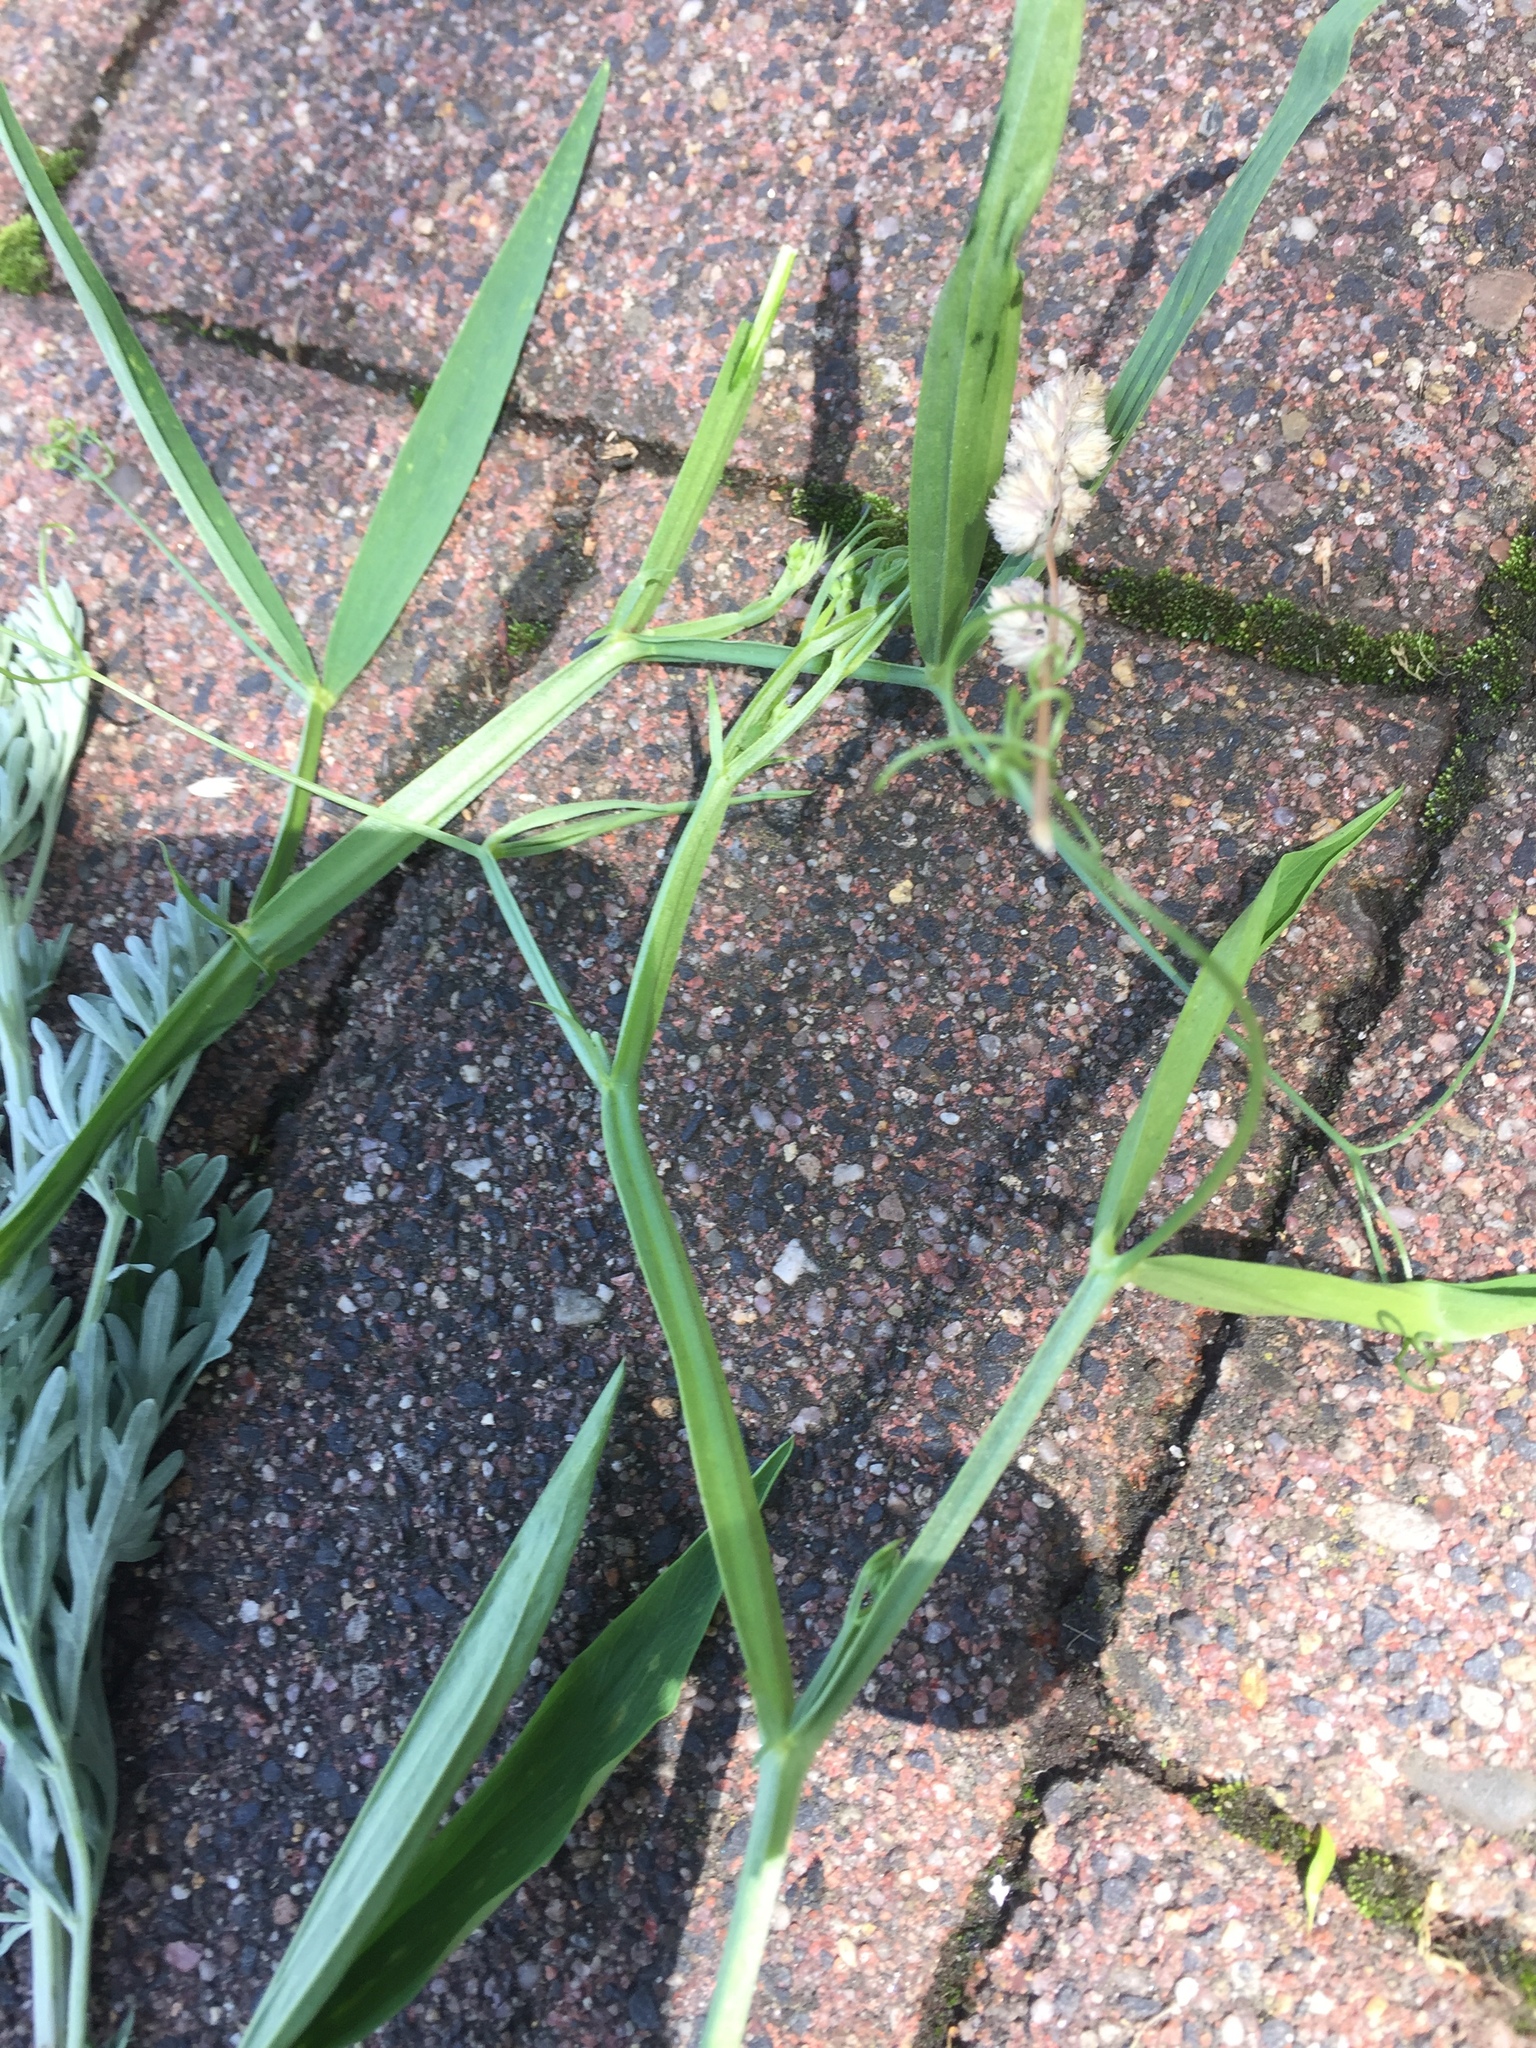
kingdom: Plantae
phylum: Tracheophyta
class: Magnoliopsida
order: Fabales
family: Fabaceae
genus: Lathyrus
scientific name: Lathyrus sylvestris
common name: Flat pea
